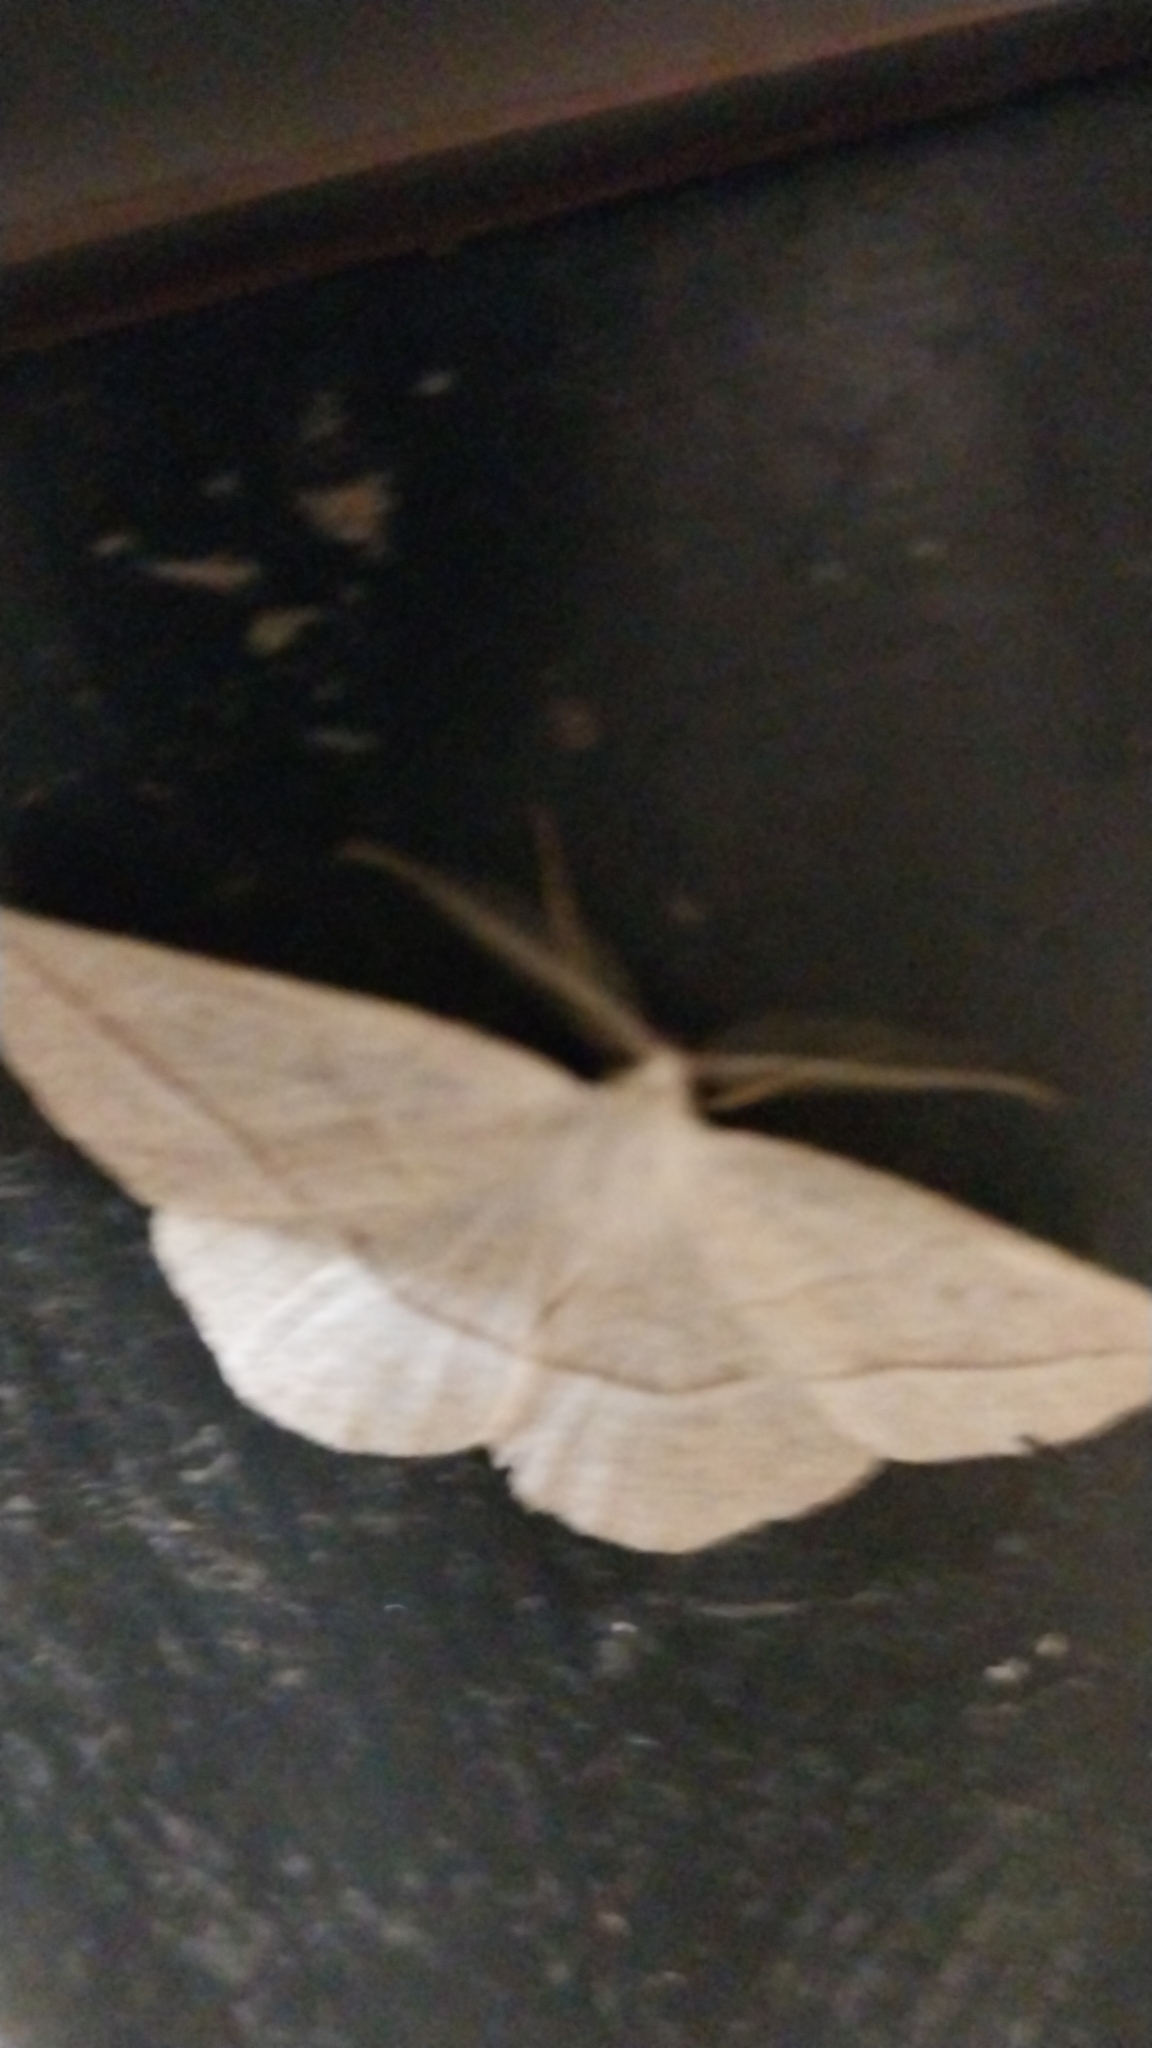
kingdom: Animalia
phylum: Arthropoda
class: Insecta
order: Lepidoptera
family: Geometridae
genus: Eusarca
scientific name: Eusarca confusaria
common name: Confused eusarca
